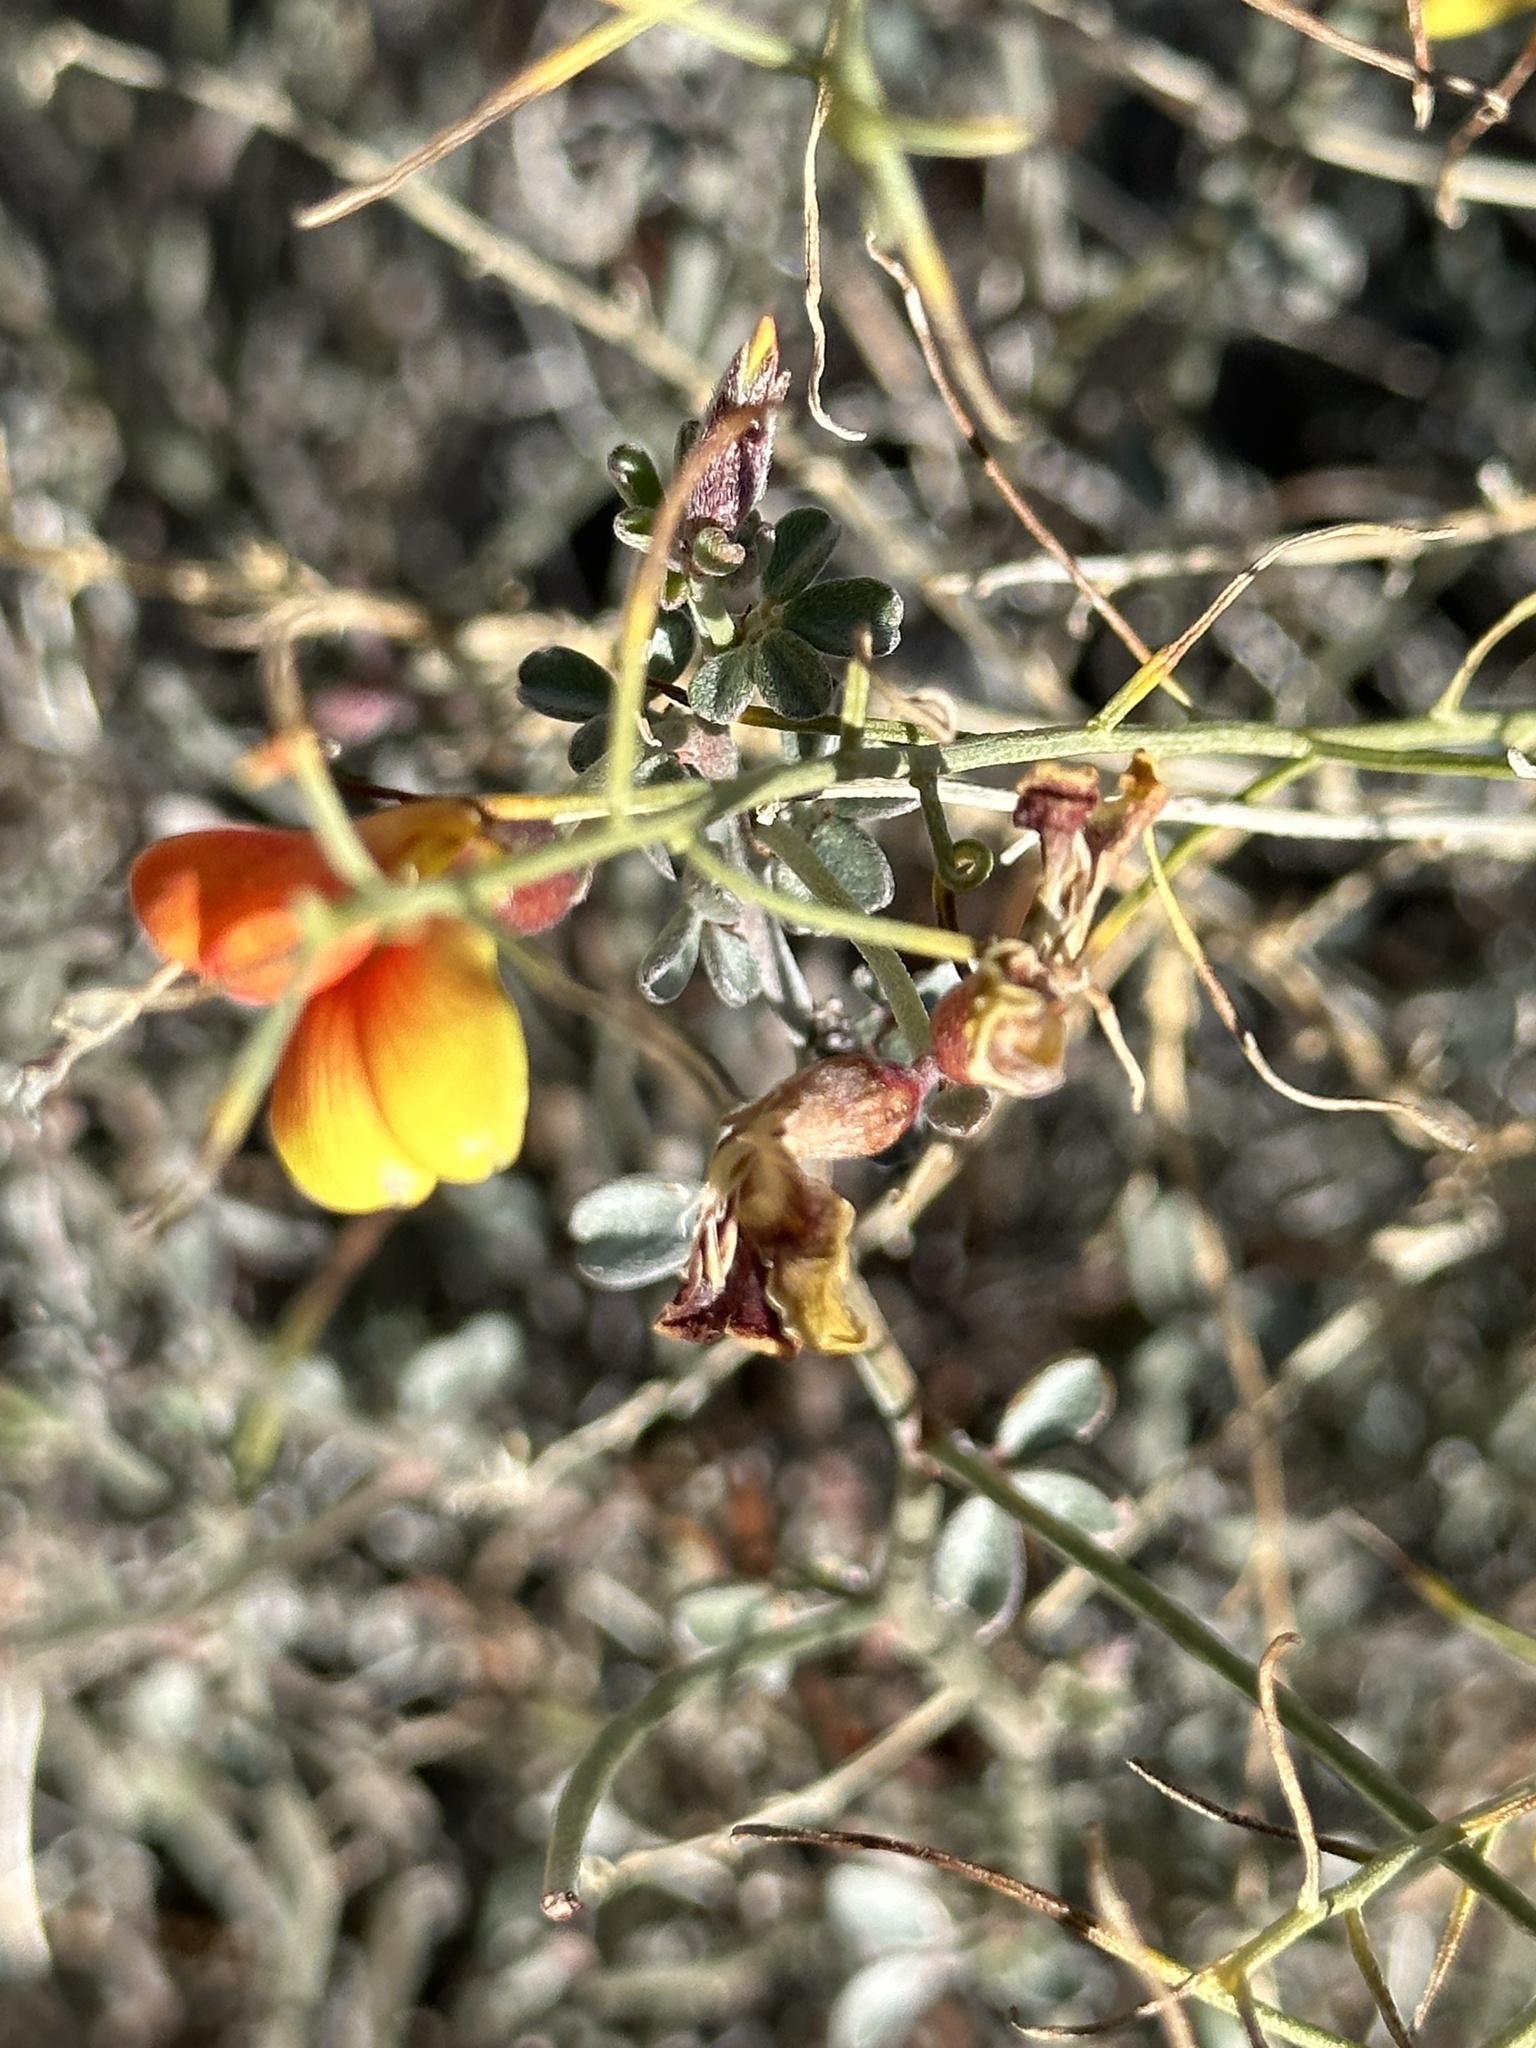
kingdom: Plantae
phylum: Tracheophyta
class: Magnoliopsida
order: Fabales
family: Fabaceae
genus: Acmispon
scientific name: Acmispon rigidus
